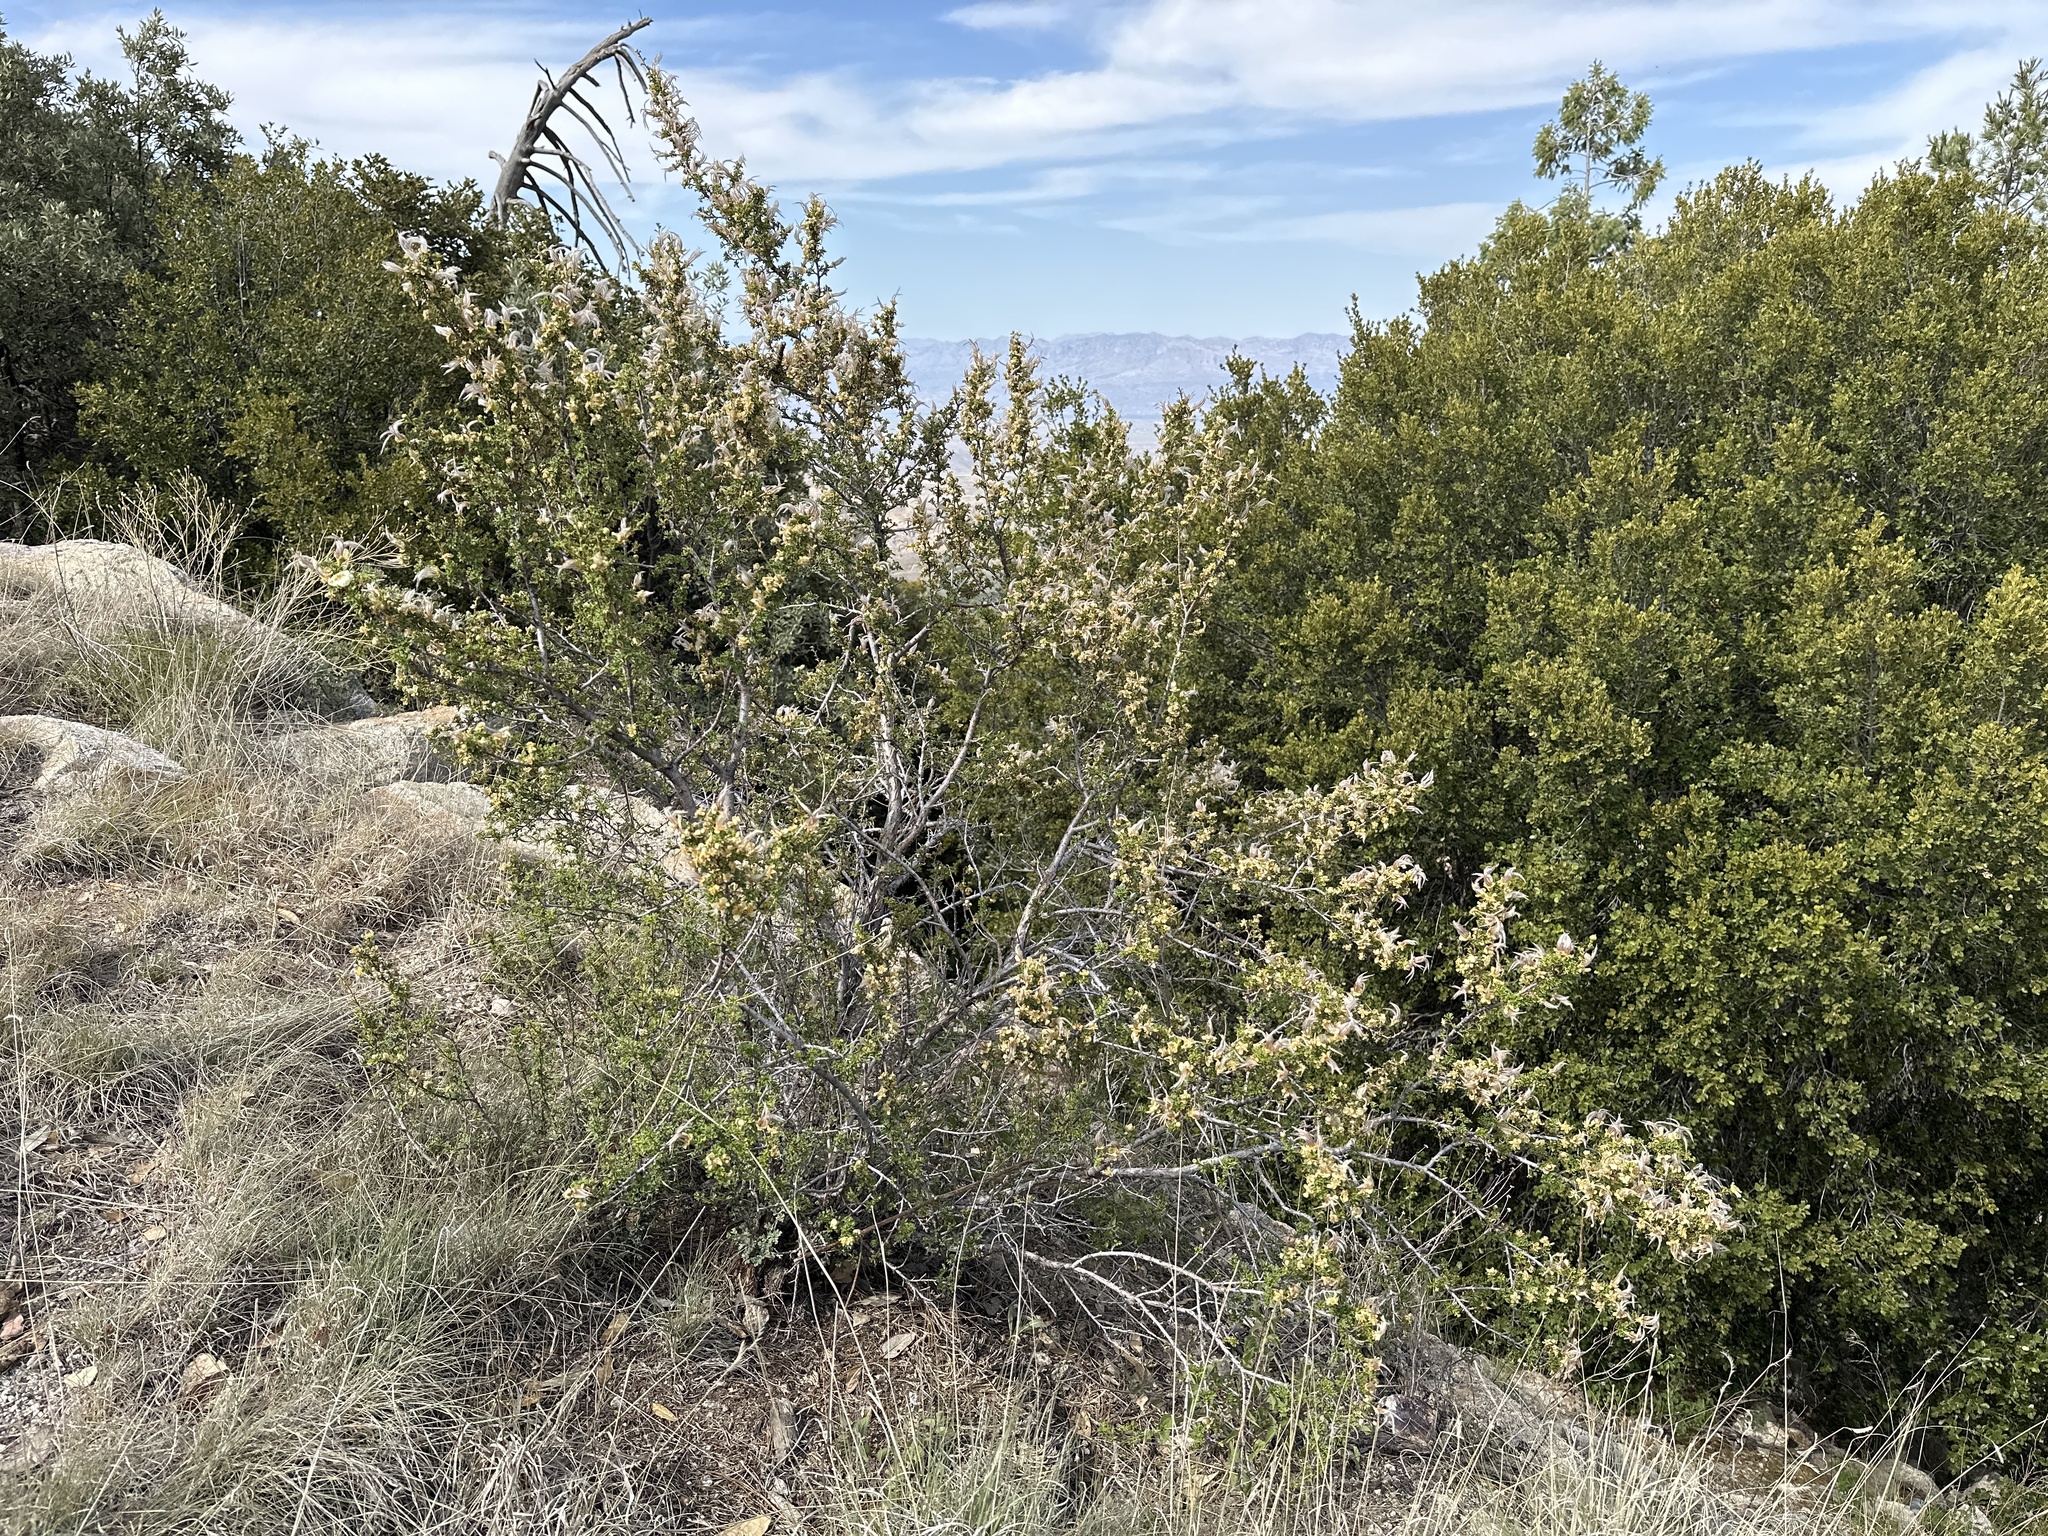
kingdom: Plantae
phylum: Tracheophyta
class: Magnoliopsida
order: Rosales
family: Rosaceae
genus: Purshia
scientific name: Purshia stansburiana
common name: Stansbury's cliffrose
